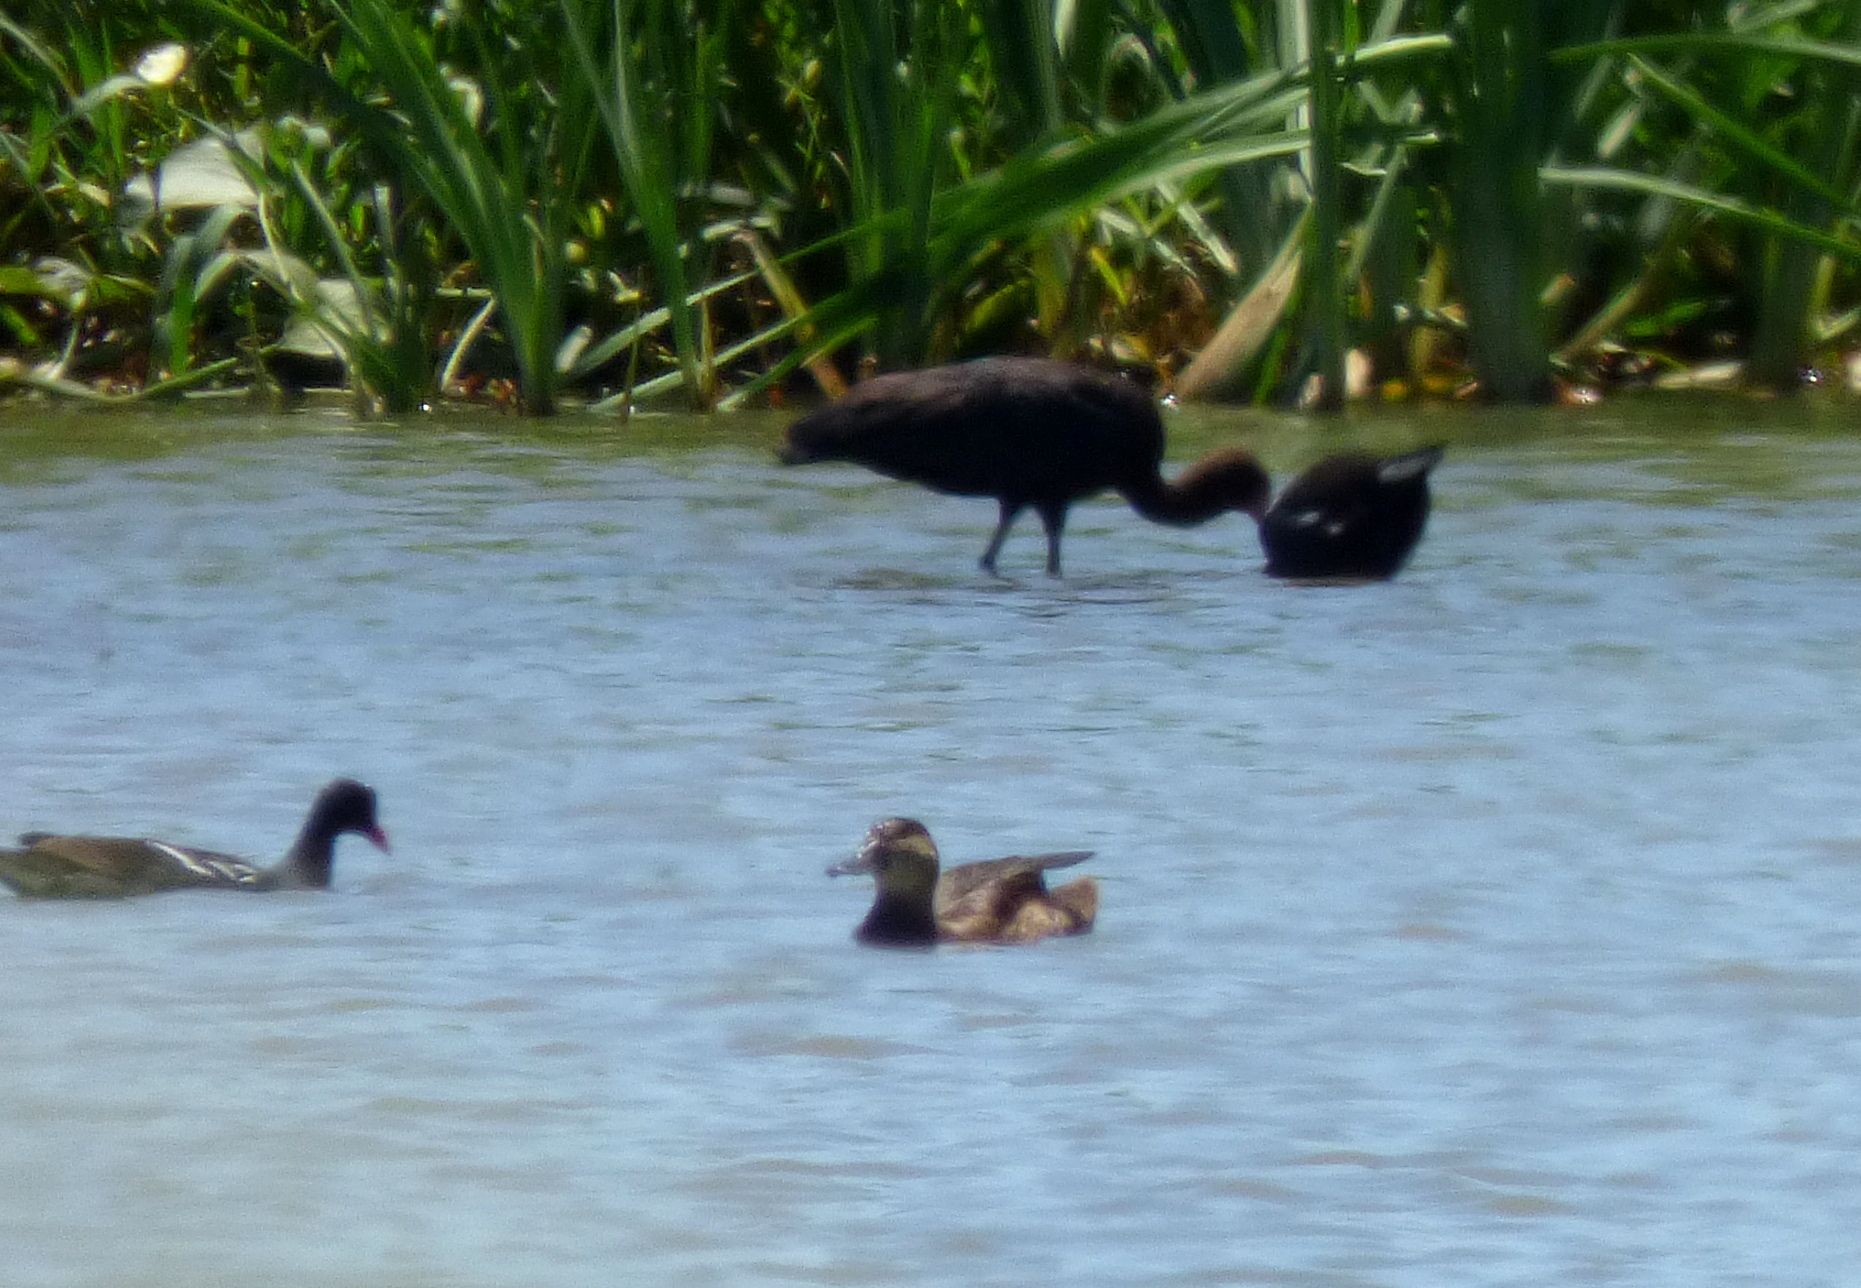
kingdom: Animalia
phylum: Chordata
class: Aves
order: Anseriformes
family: Anatidae
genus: Heteronetta
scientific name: Heteronetta atricapilla
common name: Black-headed duck
